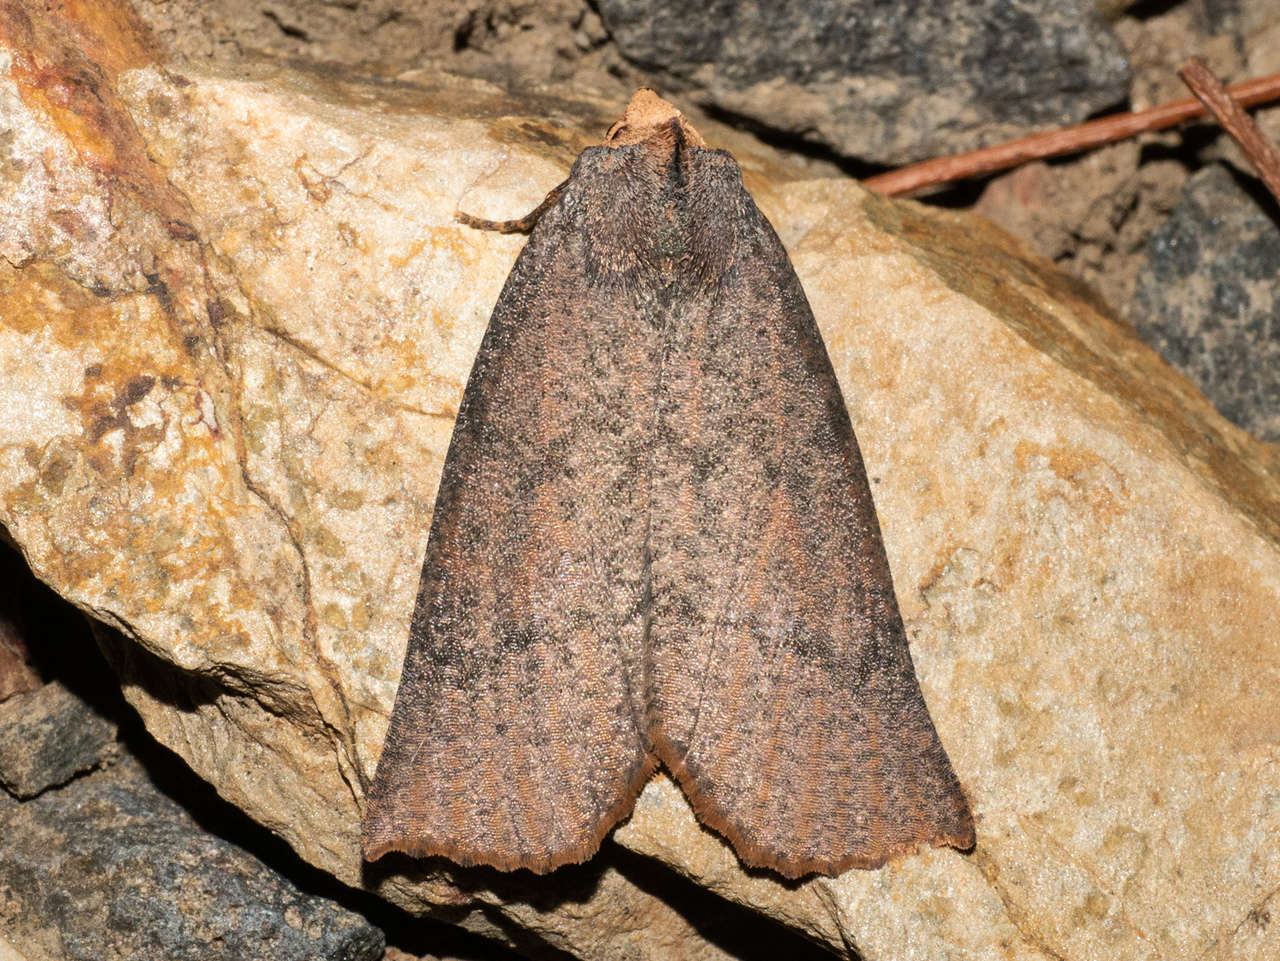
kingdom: Animalia
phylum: Arthropoda
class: Insecta
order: Lepidoptera
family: Geometridae
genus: Fisera
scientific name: Fisera eribola
